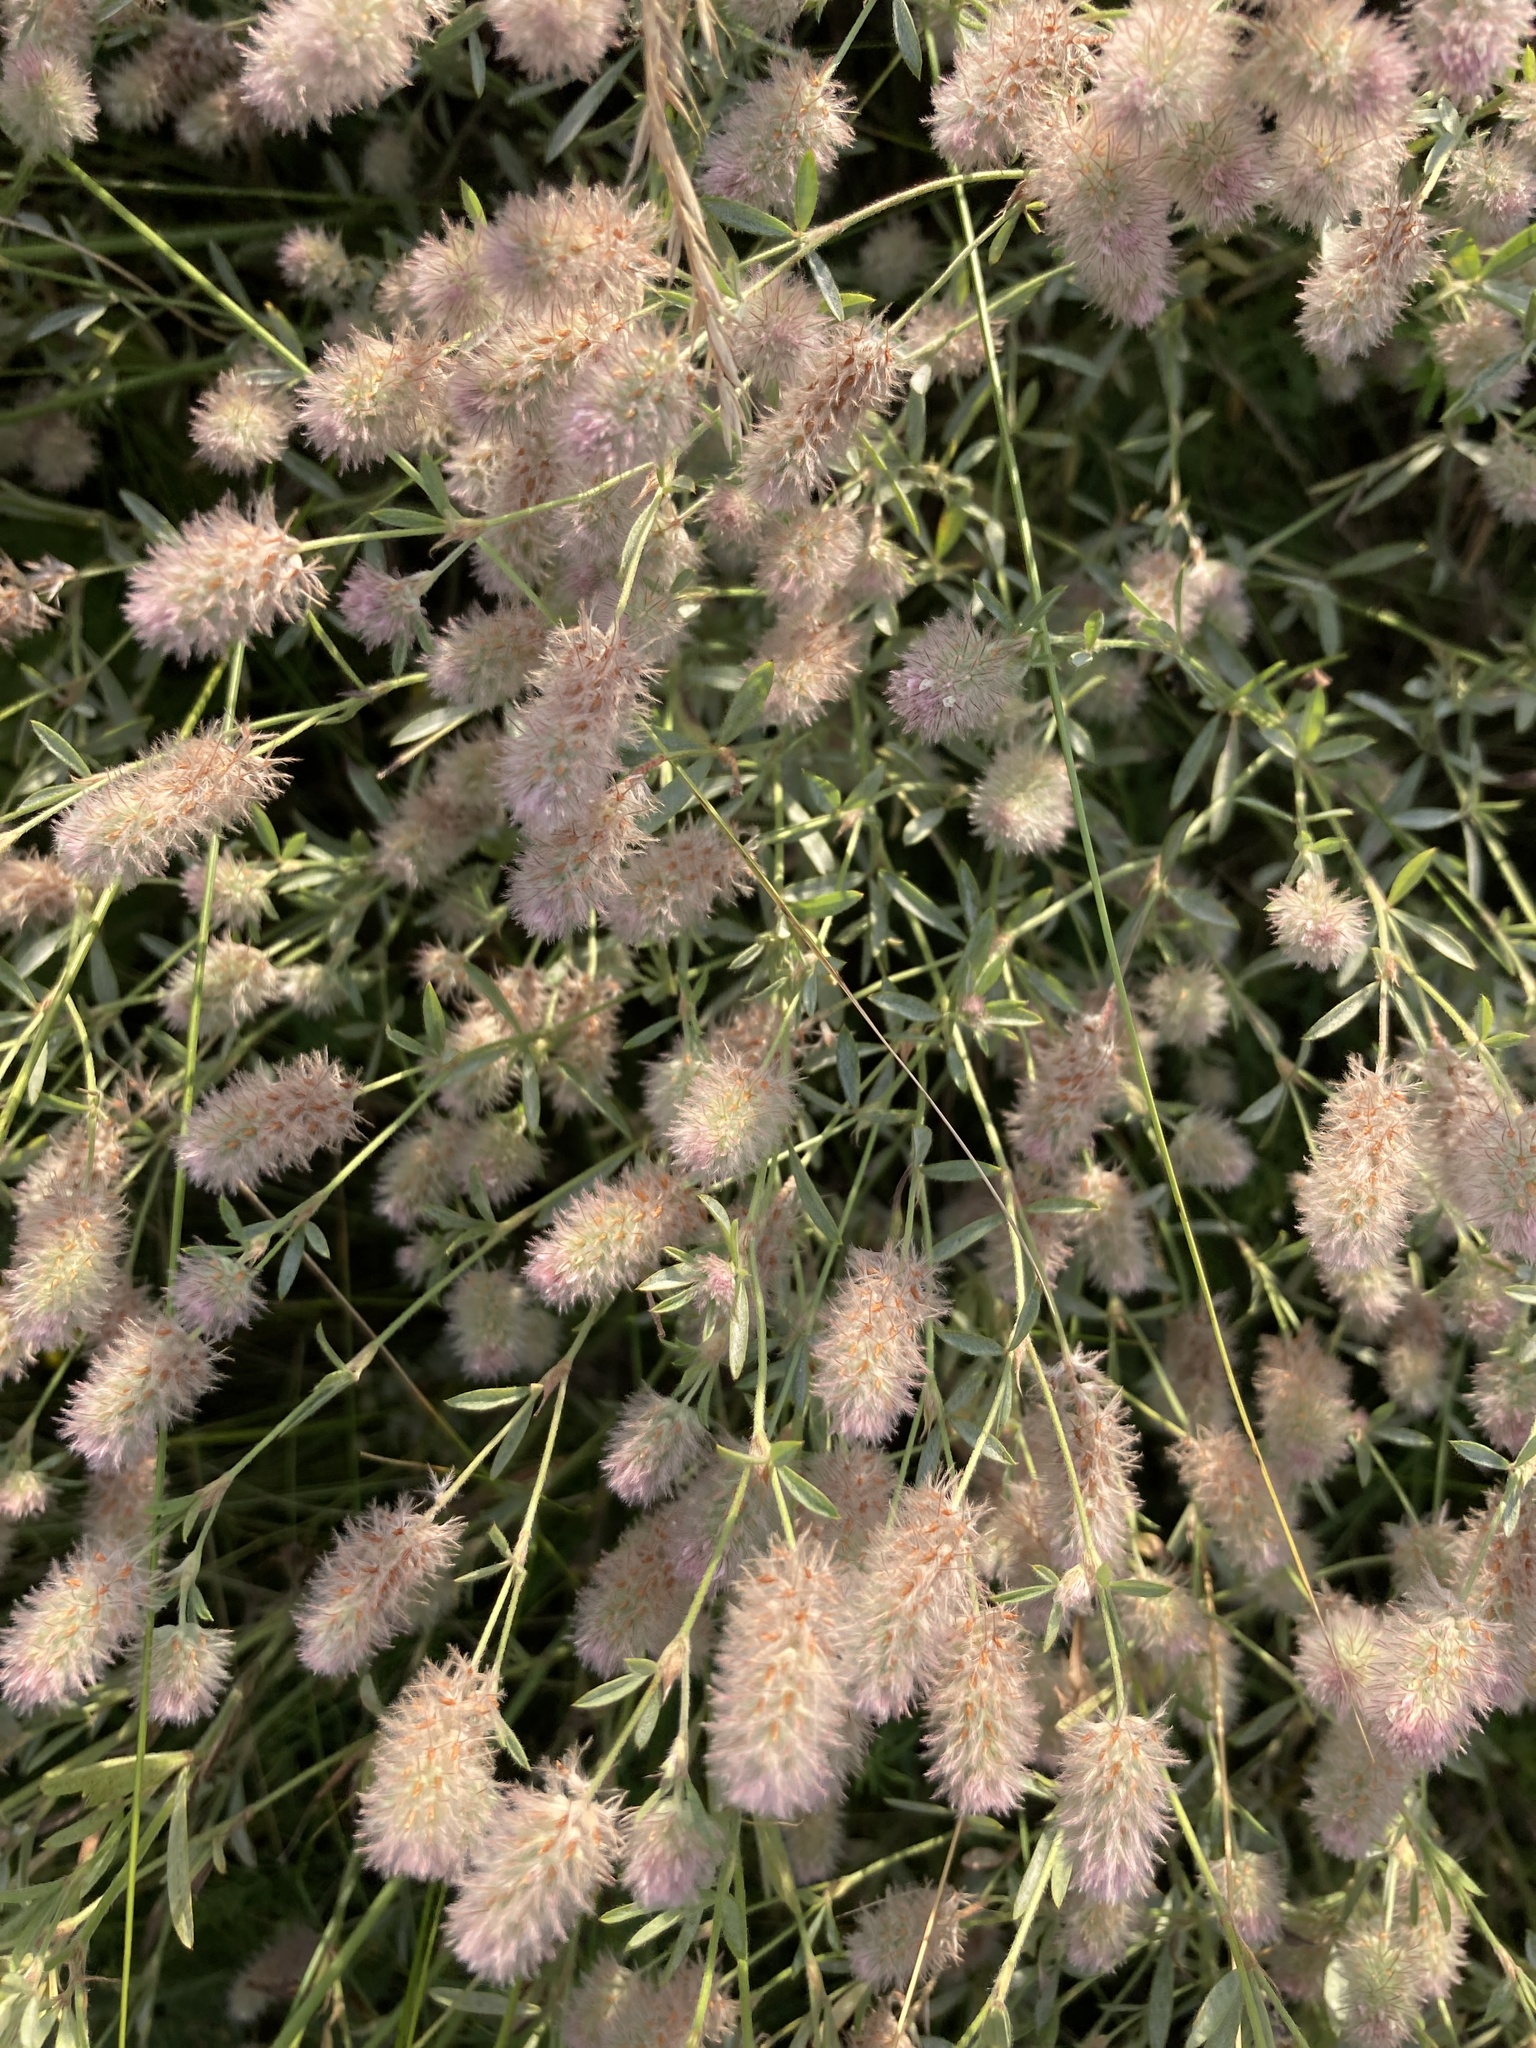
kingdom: Plantae
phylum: Tracheophyta
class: Magnoliopsida
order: Fabales
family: Fabaceae
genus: Trifolium
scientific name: Trifolium arvense
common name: Hare's-foot clover
